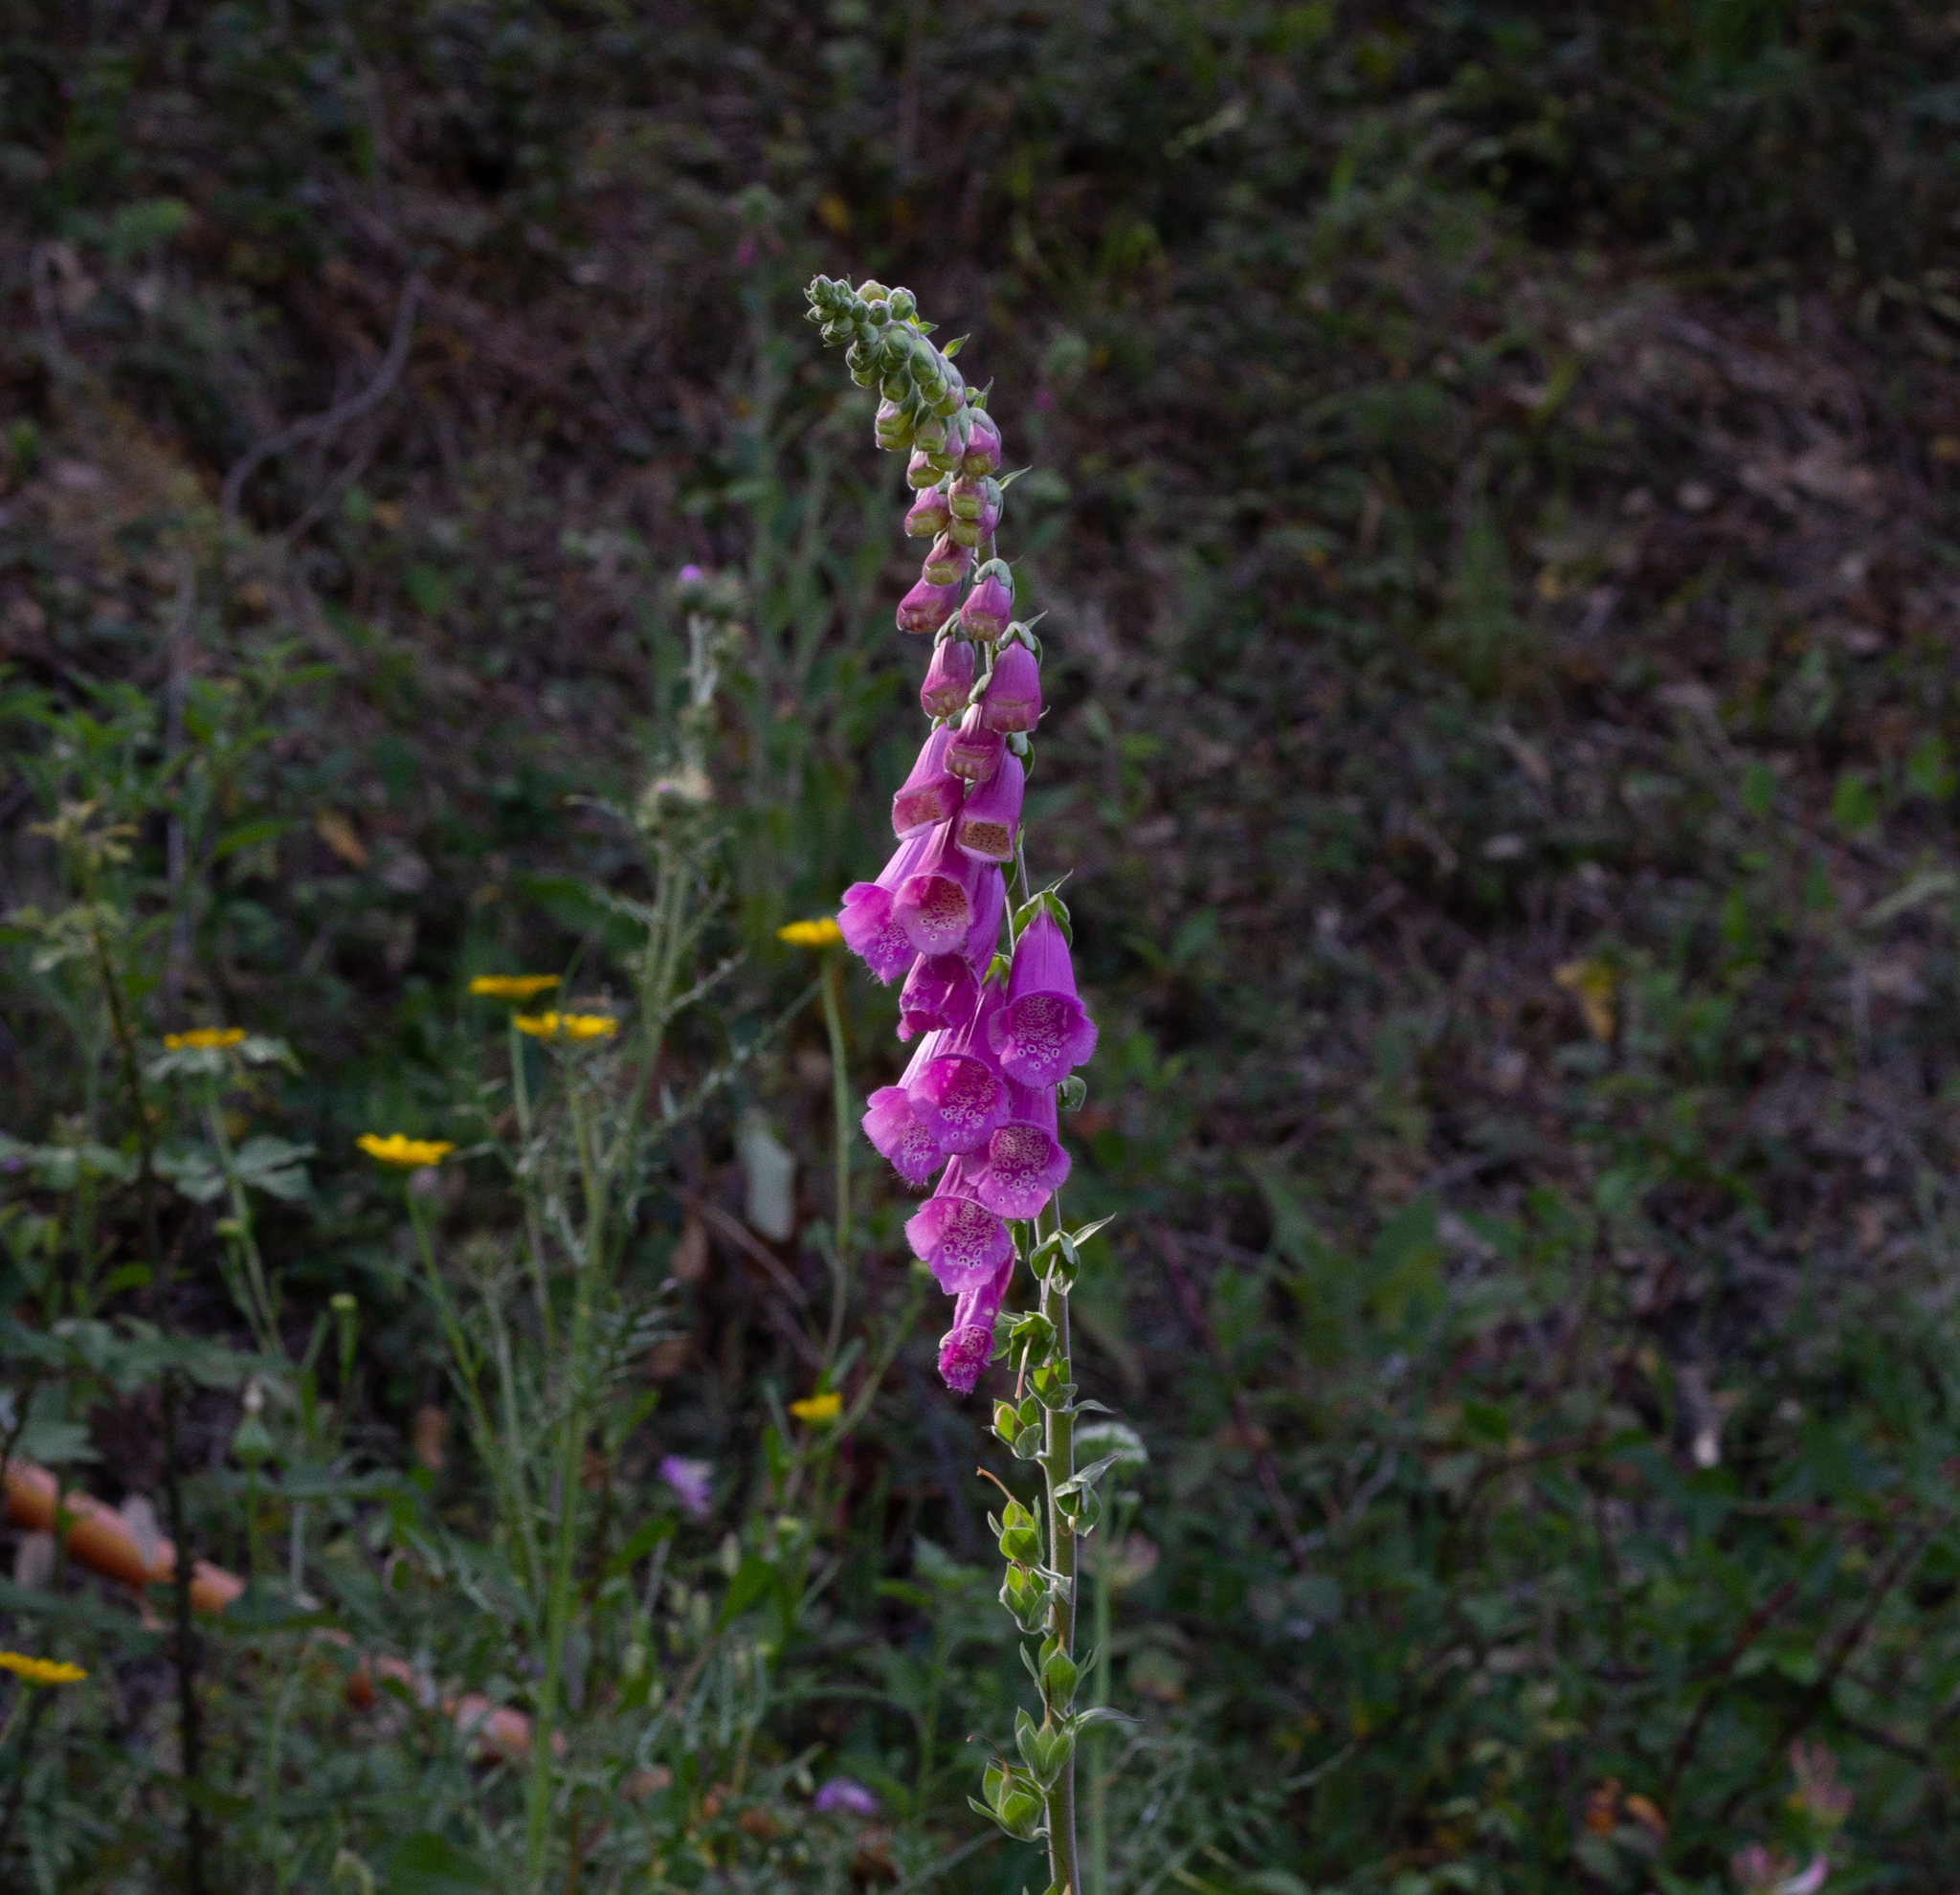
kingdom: Plantae
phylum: Tracheophyta
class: Magnoliopsida
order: Lamiales
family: Plantaginaceae
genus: Digitalis
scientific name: Digitalis purpurea
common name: Foxglove
